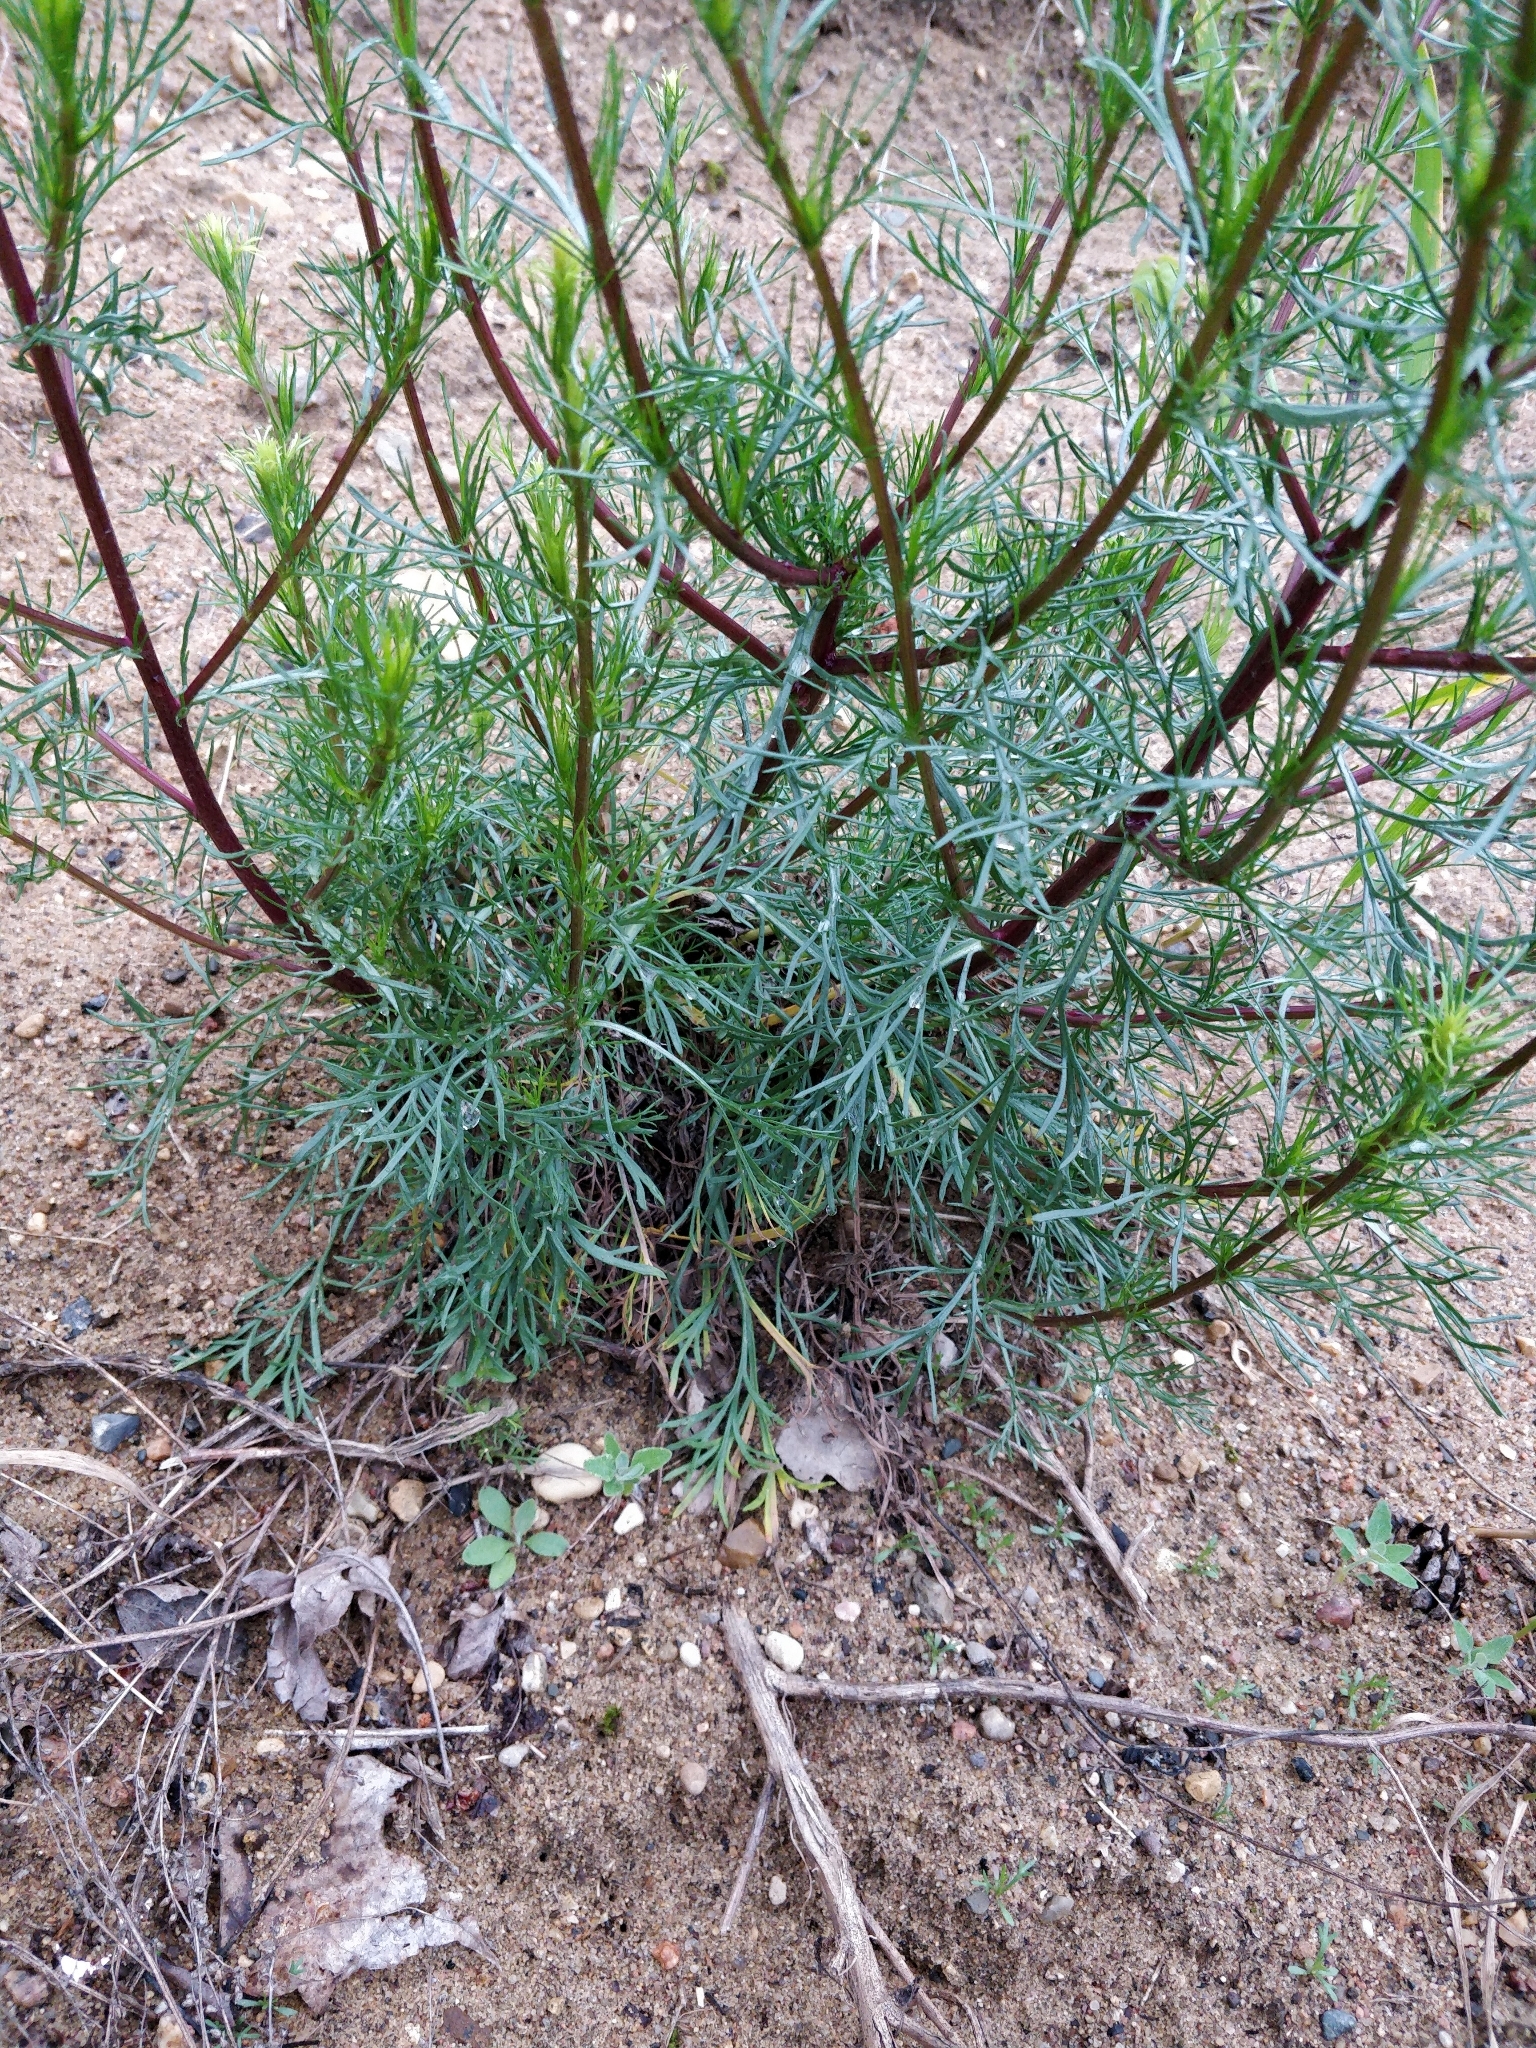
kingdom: Plantae
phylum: Tracheophyta
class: Magnoliopsida
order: Asterales
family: Asteraceae
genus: Artemisia
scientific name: Artemisia campestris
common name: Field wormwood
